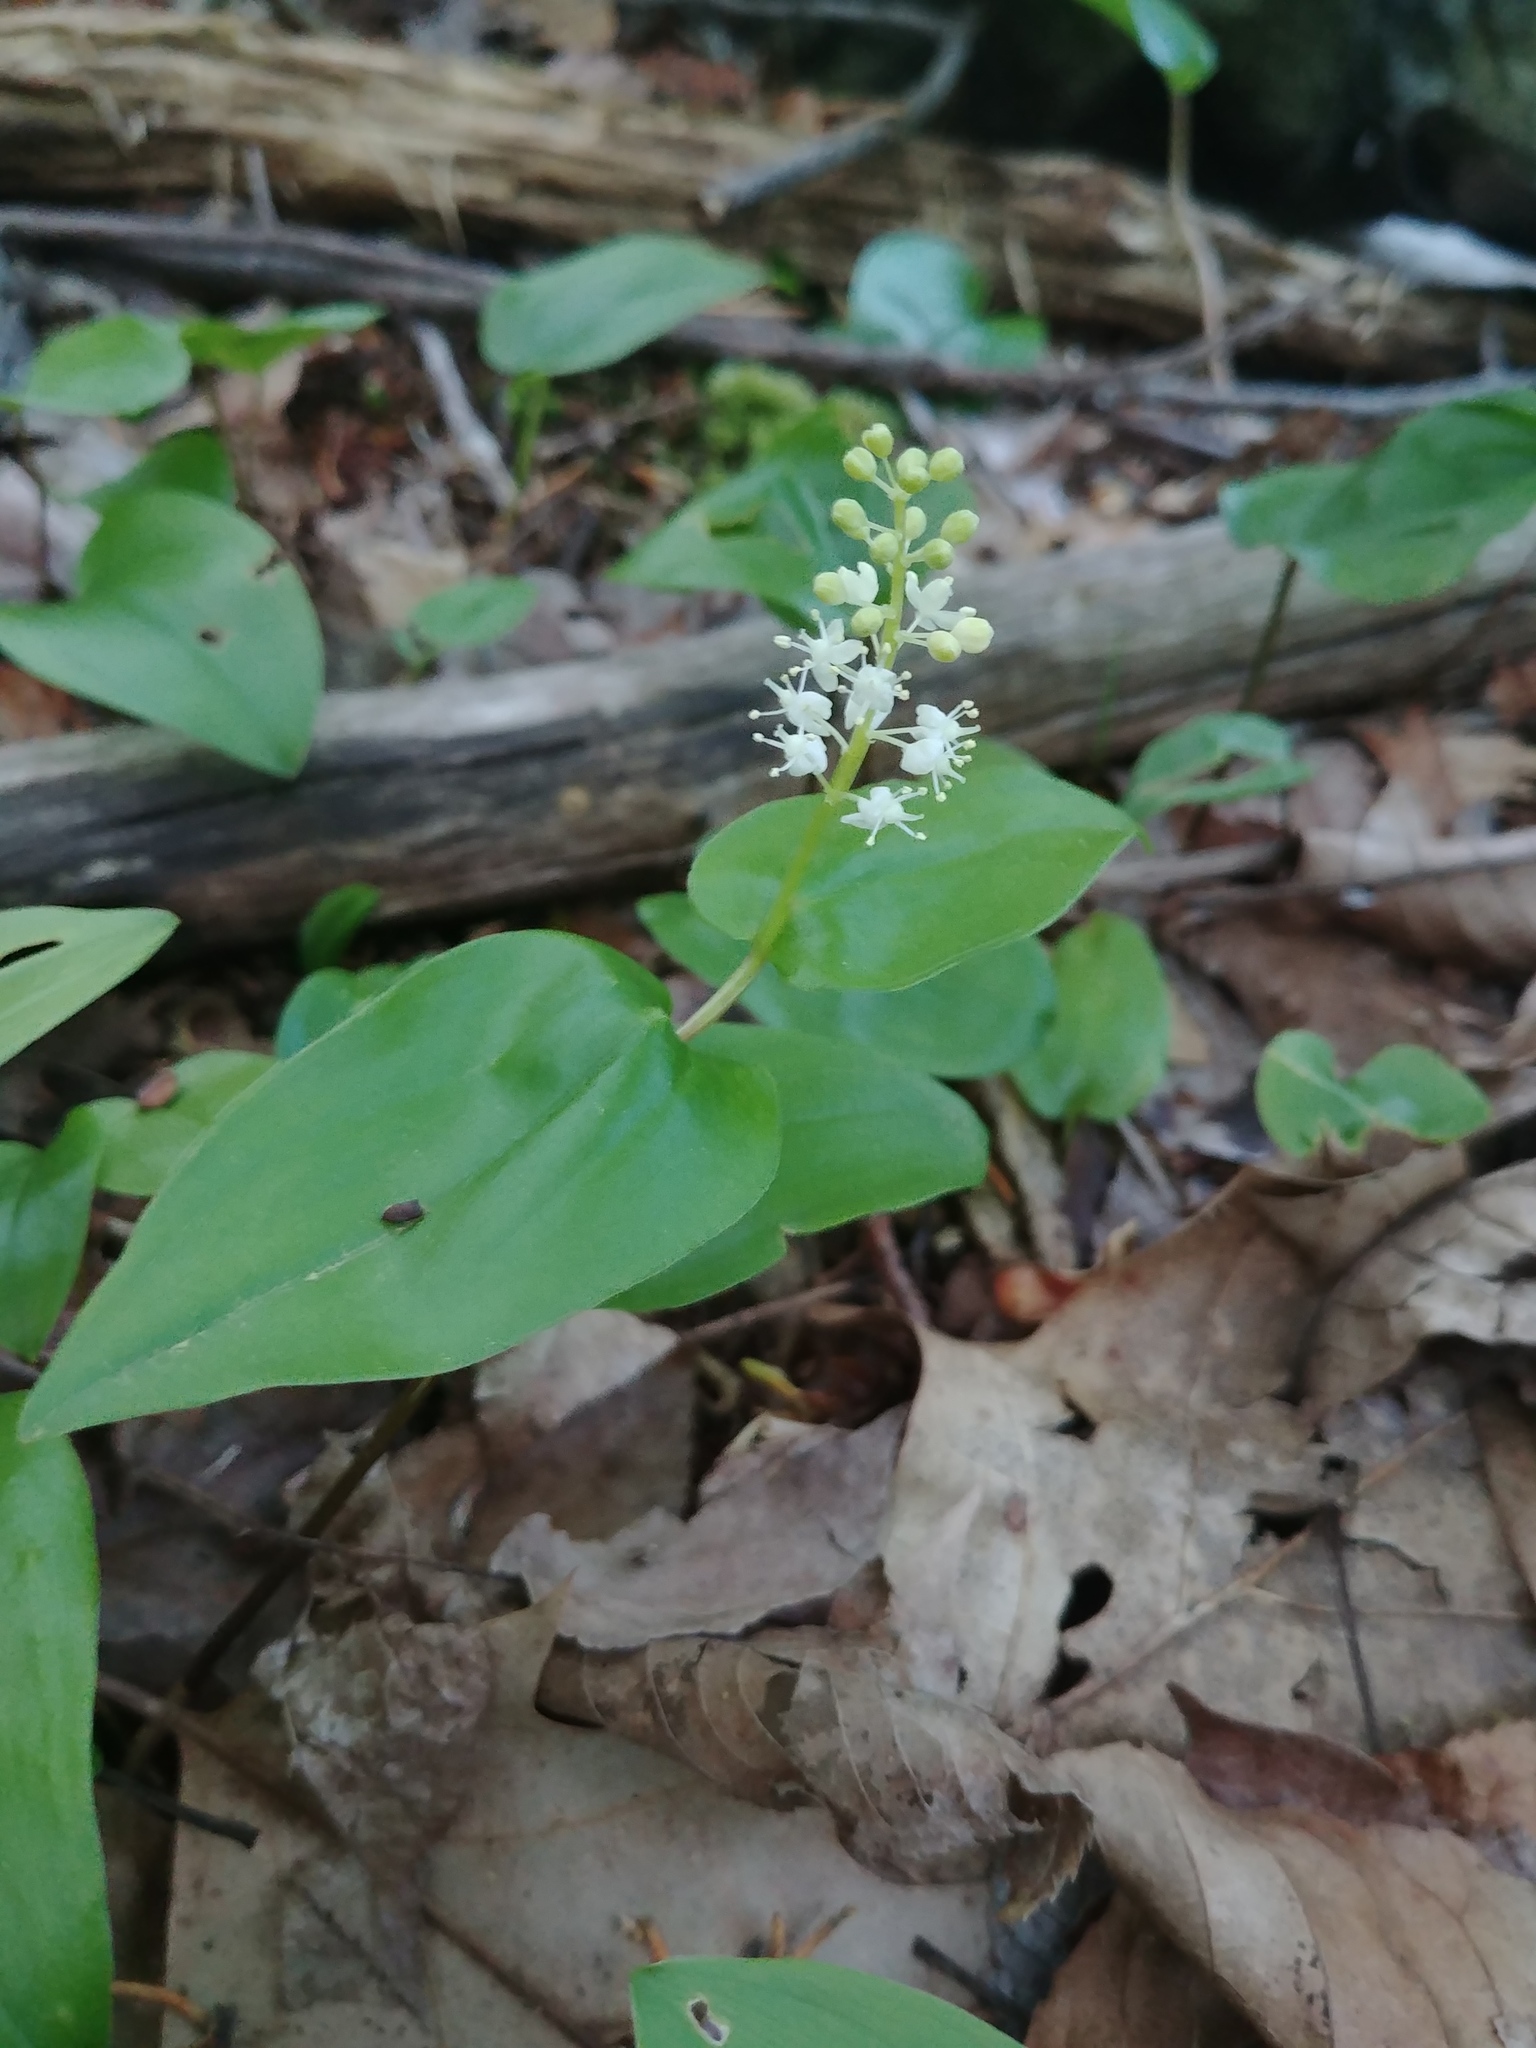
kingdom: Plantae
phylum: Tracheophyta
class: Liliopsida
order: Asparagales
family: Asparagaceae
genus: Maianthemum
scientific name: Maianthemum canadense
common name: False lily-of-the-valley
